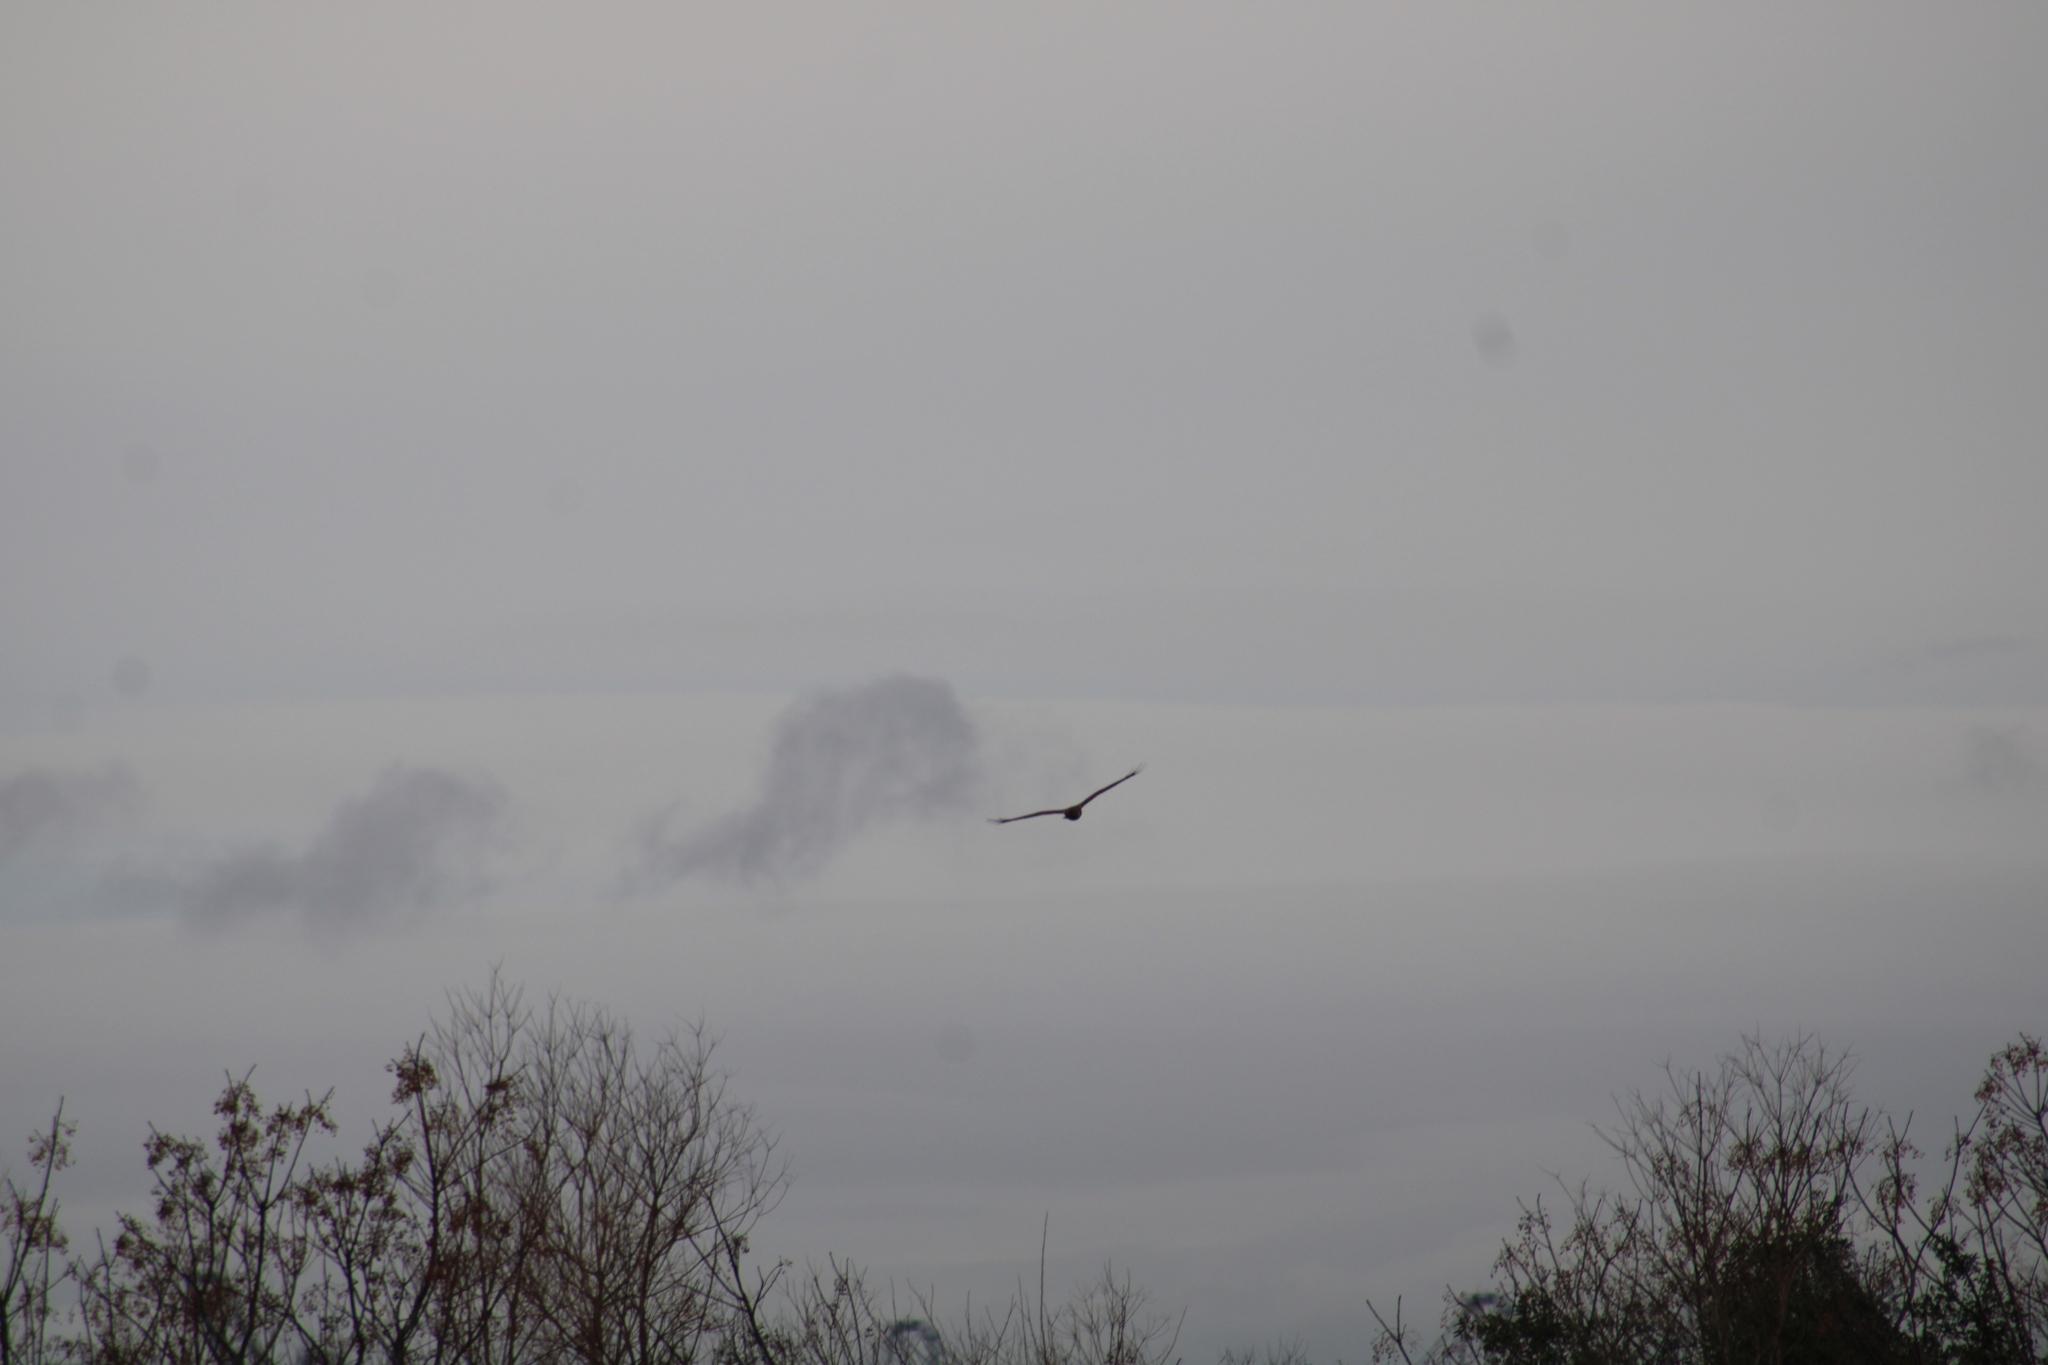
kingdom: Animalia
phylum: Chordata
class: Aves
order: Accipitriformes
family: Accipitridae
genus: Circus
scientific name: Circus cyaneus
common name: Hen harrier
